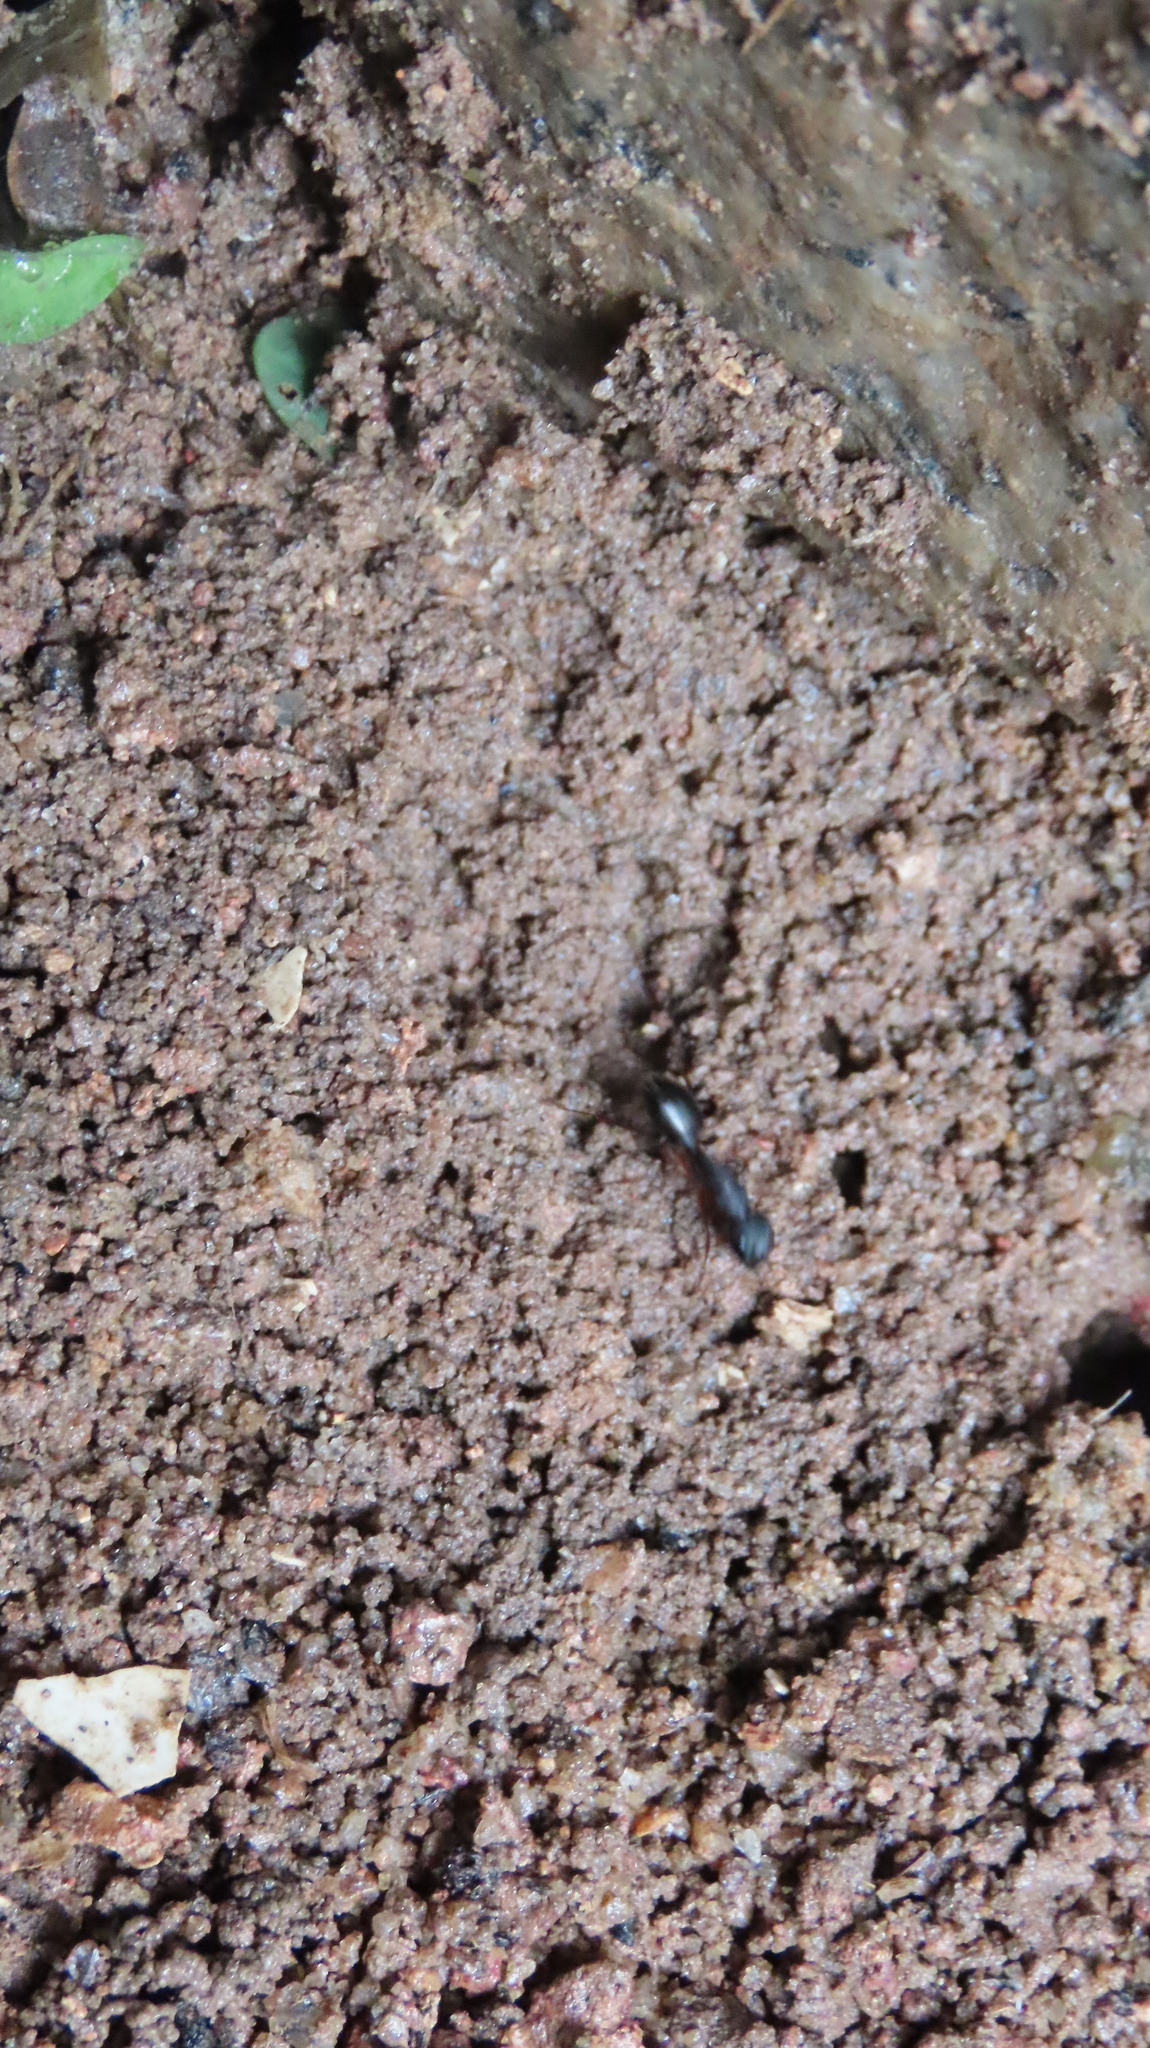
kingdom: Animalia
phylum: Arthropoda
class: Insecta
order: Hymenoptera
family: Formicidae
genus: Camponotus
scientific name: Camponotus compressus
